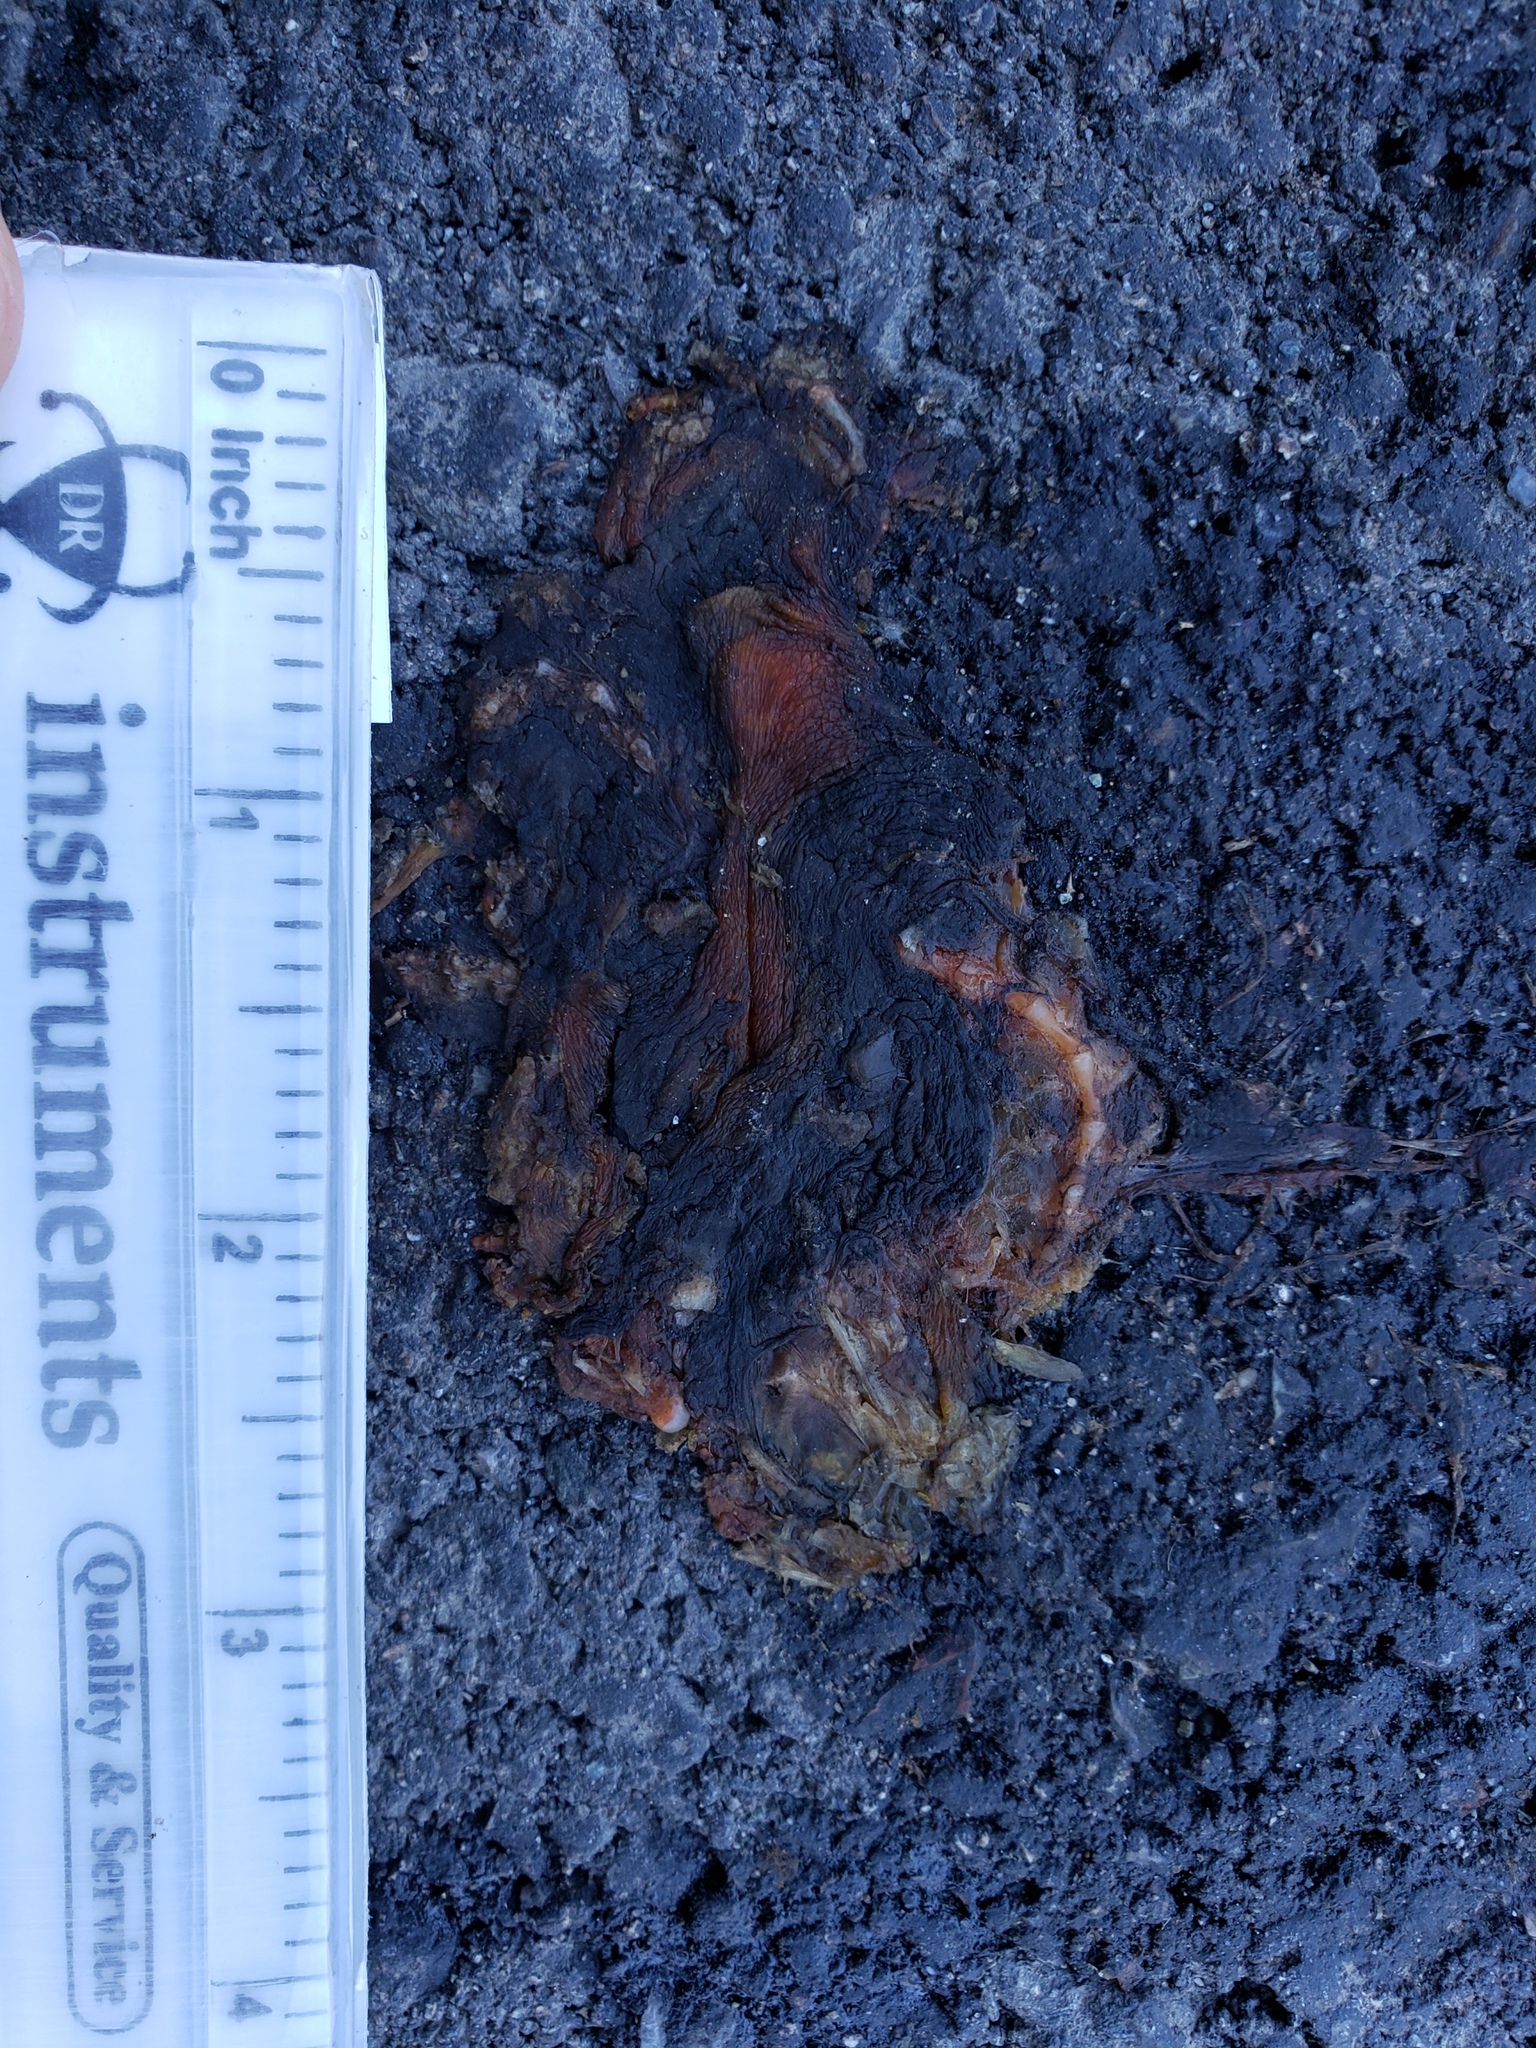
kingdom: Animalia
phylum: Chordata
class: Amphibia
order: Caudata
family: Salamandridae
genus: Taricha
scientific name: Taricha
